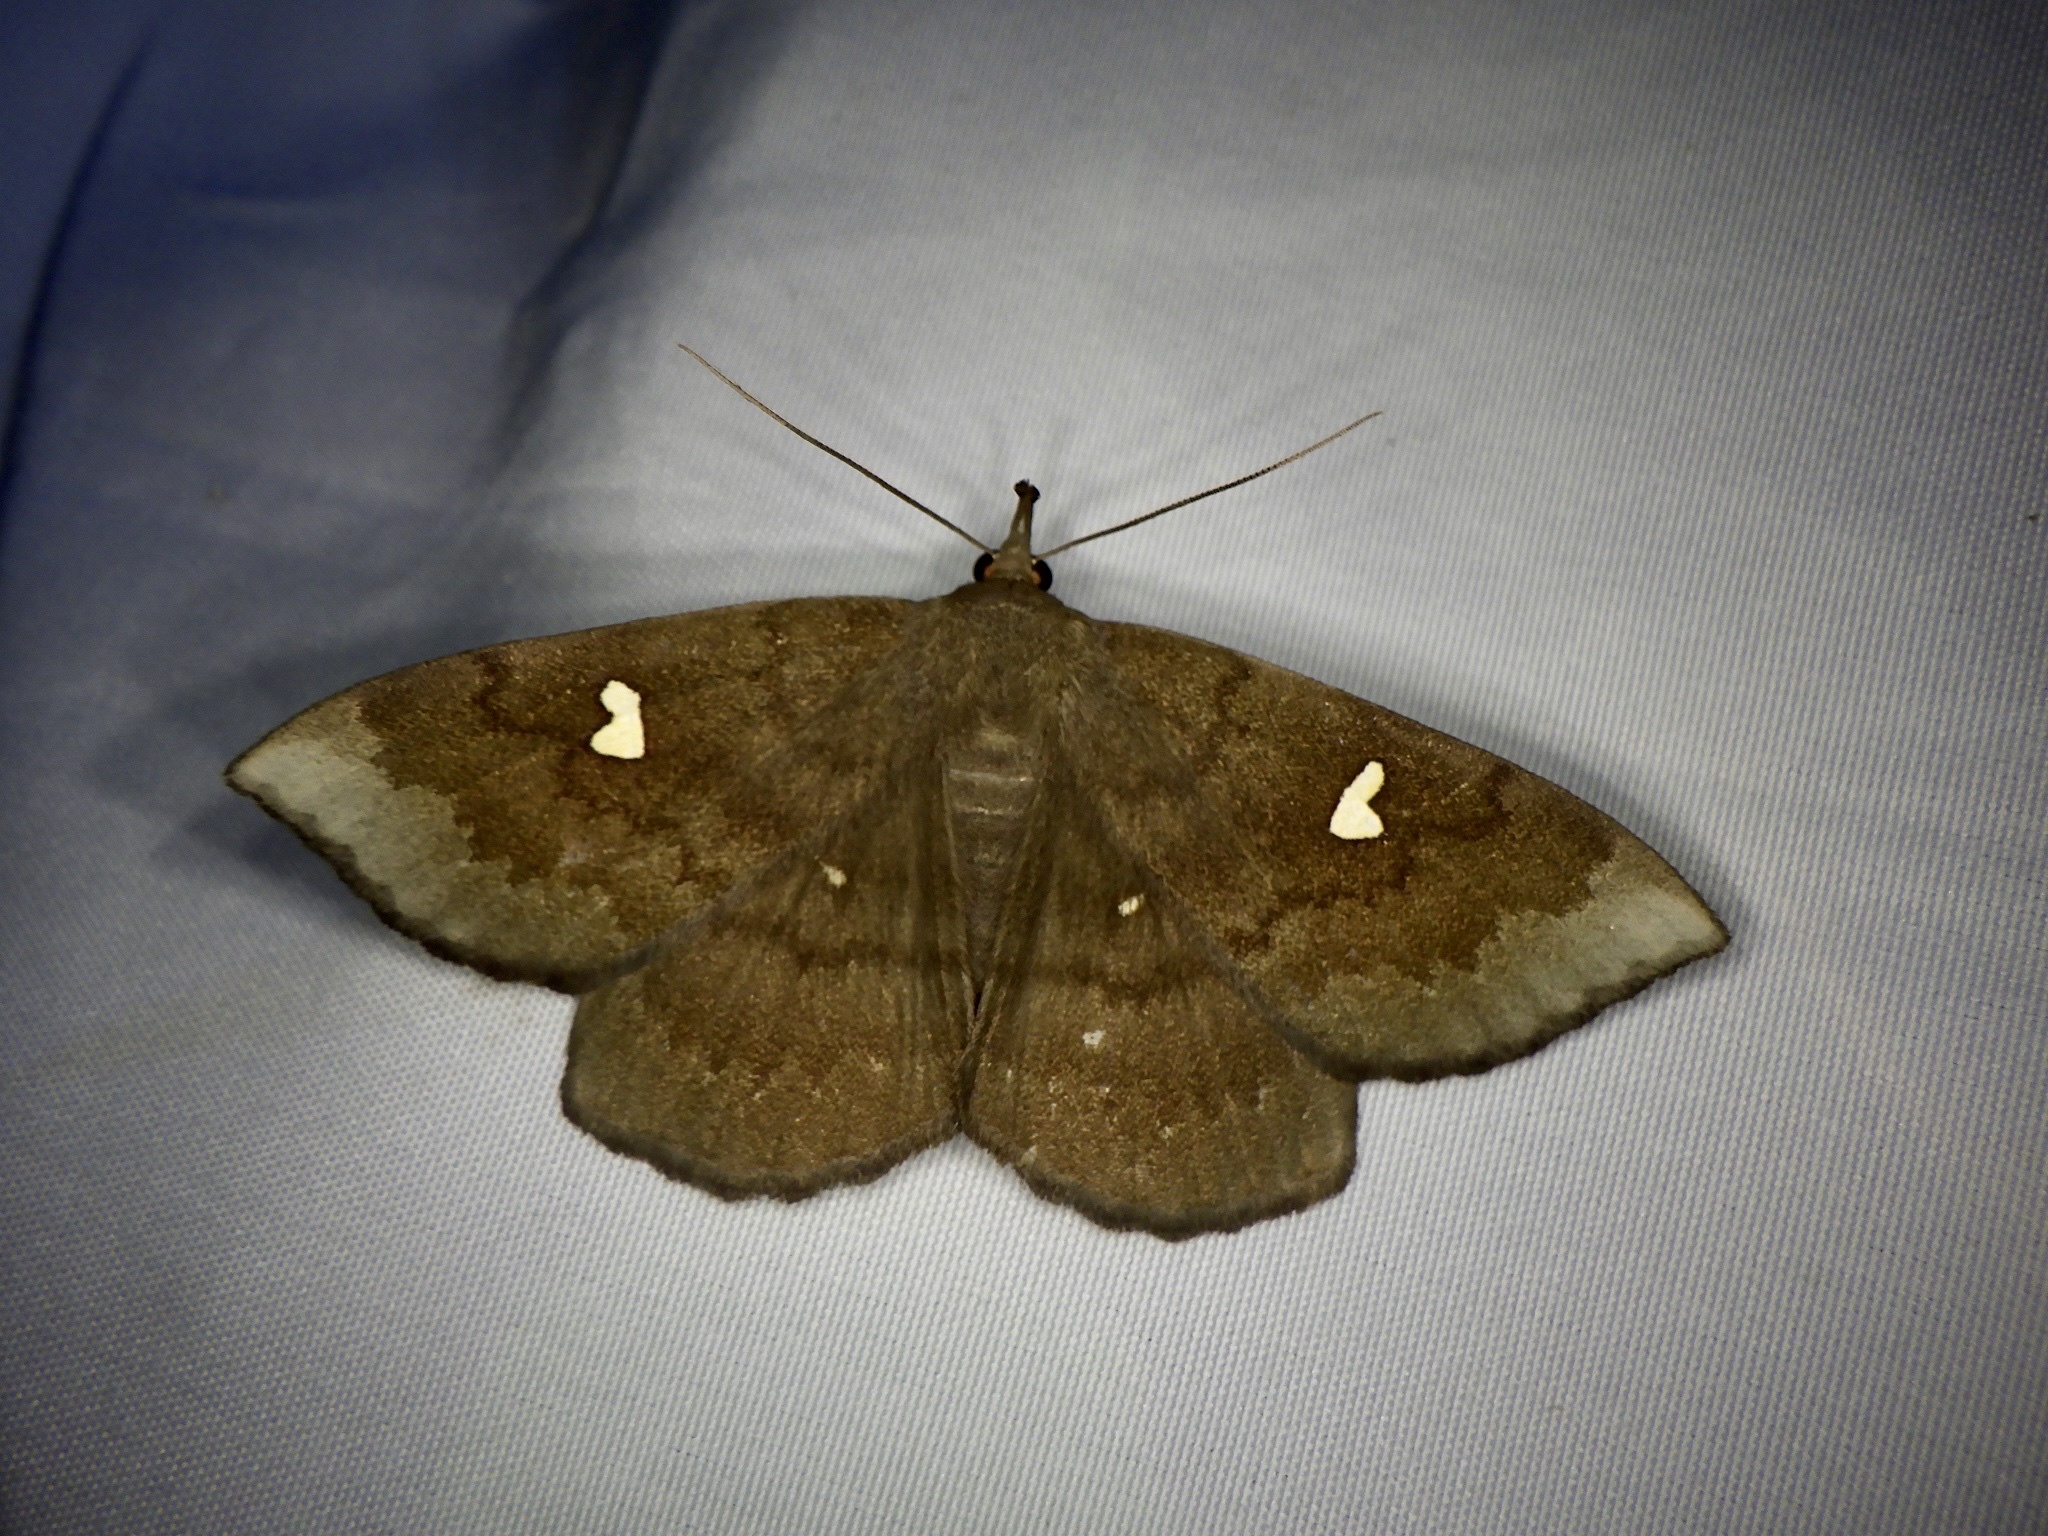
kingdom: Animalia
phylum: Arthropoda
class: Insecta
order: Lepidoptera
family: Erebidae
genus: Edessena
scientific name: Edessena hamada
